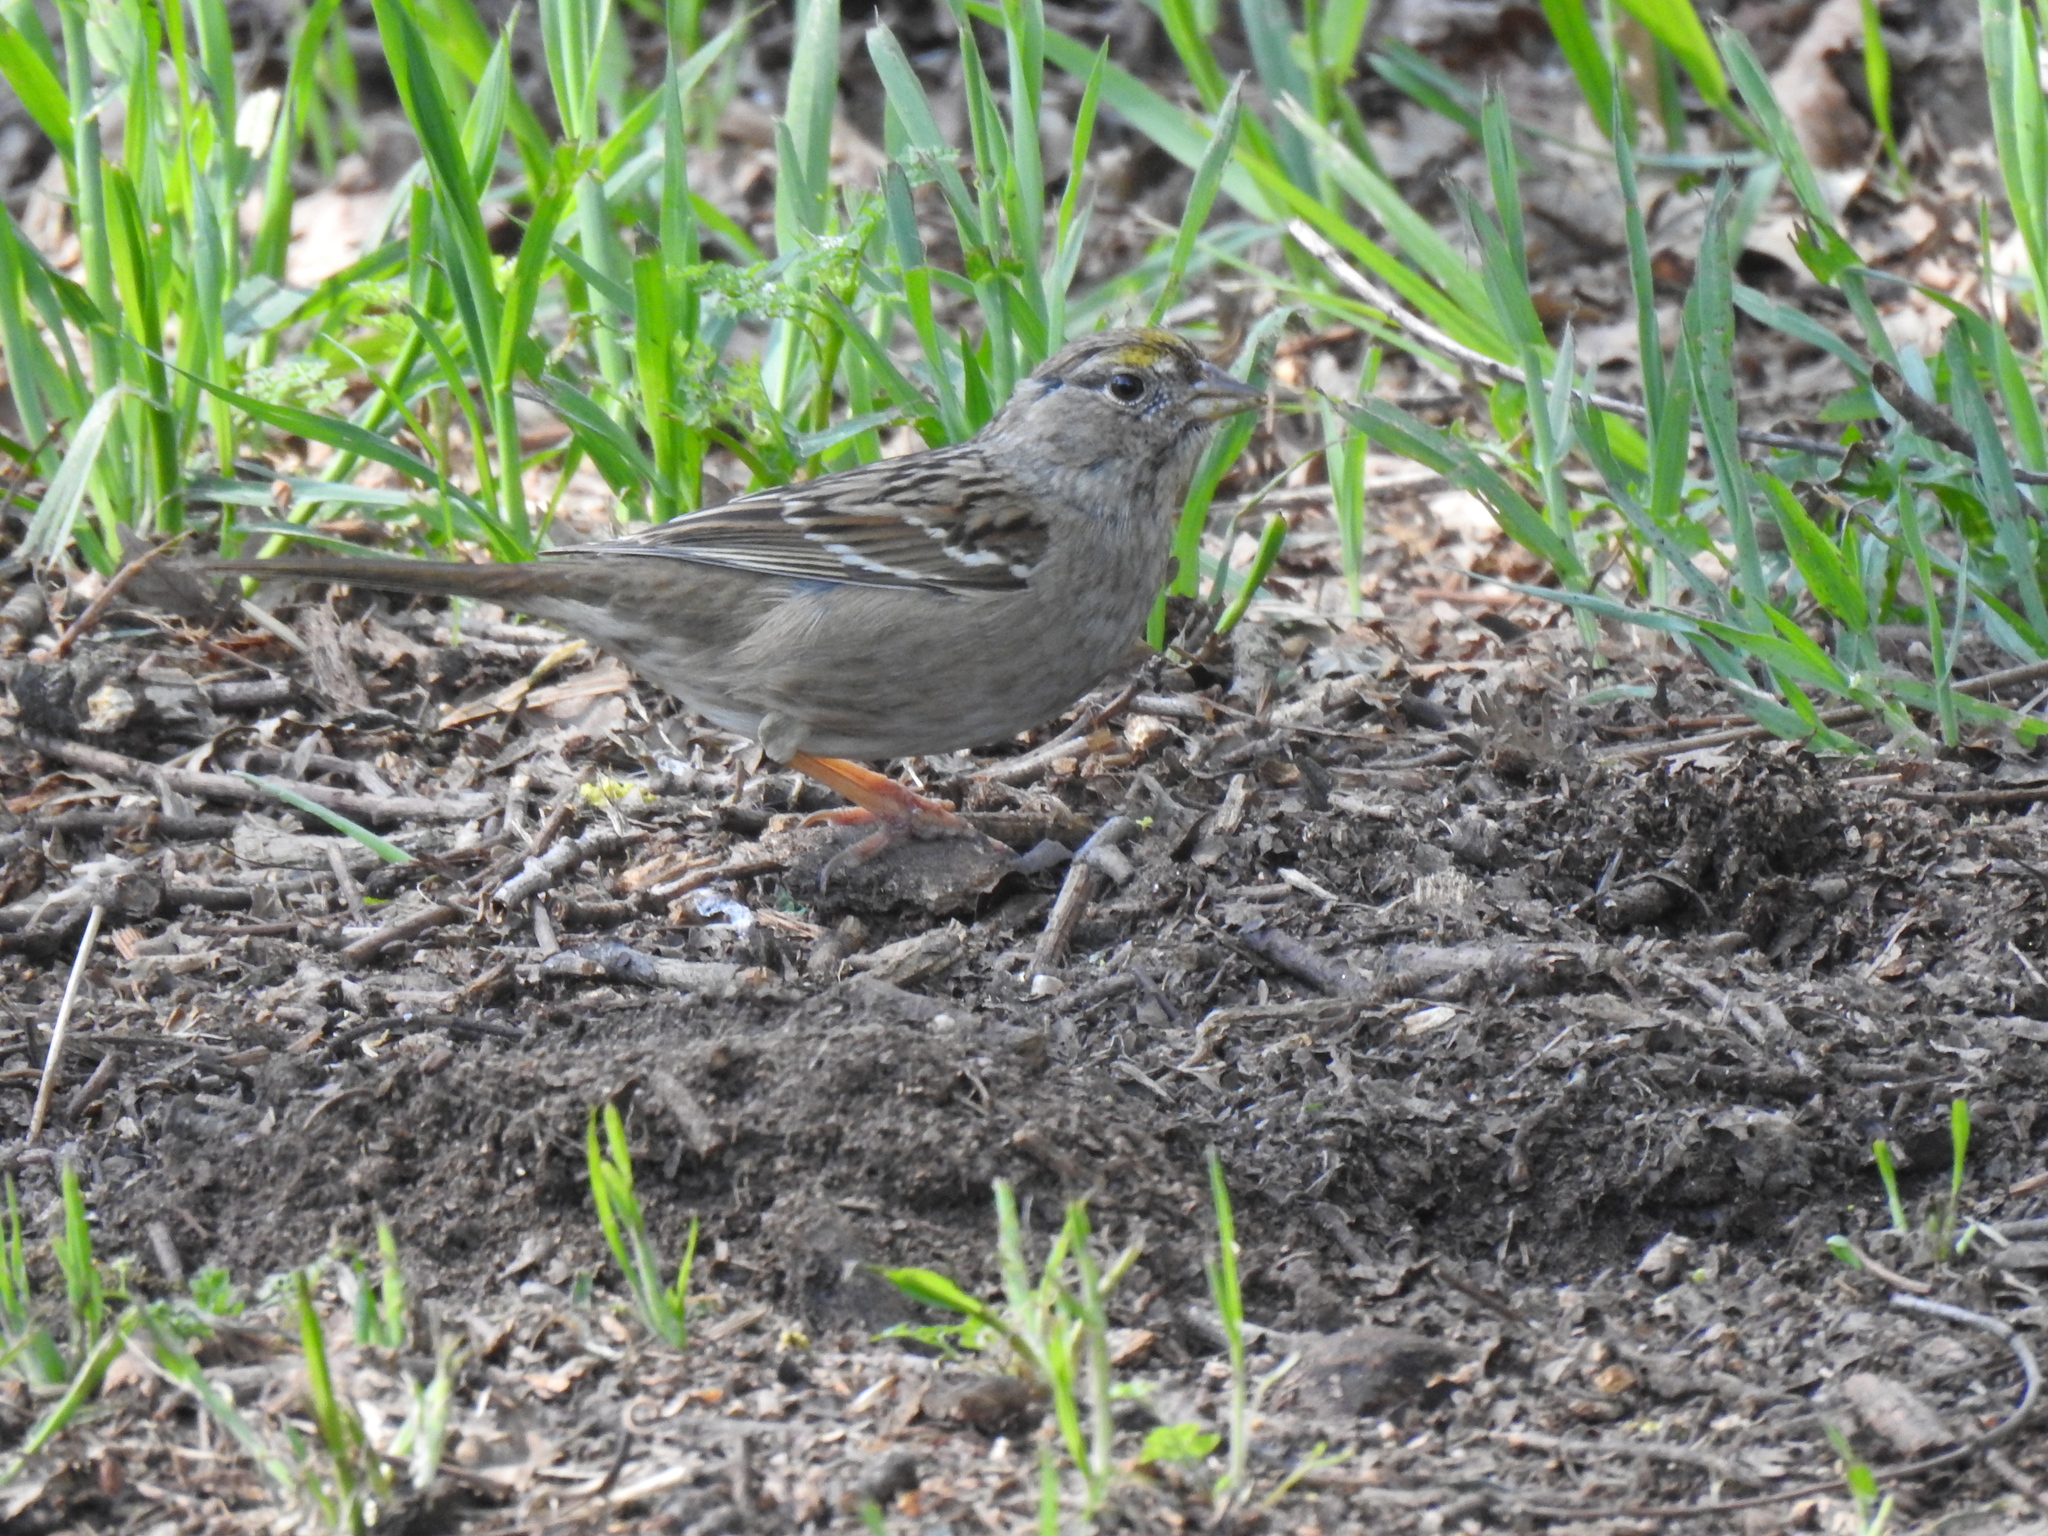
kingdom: Animalia
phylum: Chordata
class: Aves
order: Passeriformes
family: Passerellidae
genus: Zonotrichia
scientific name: Zonotrichia atricapilla
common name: Golden-crowned sparrow
